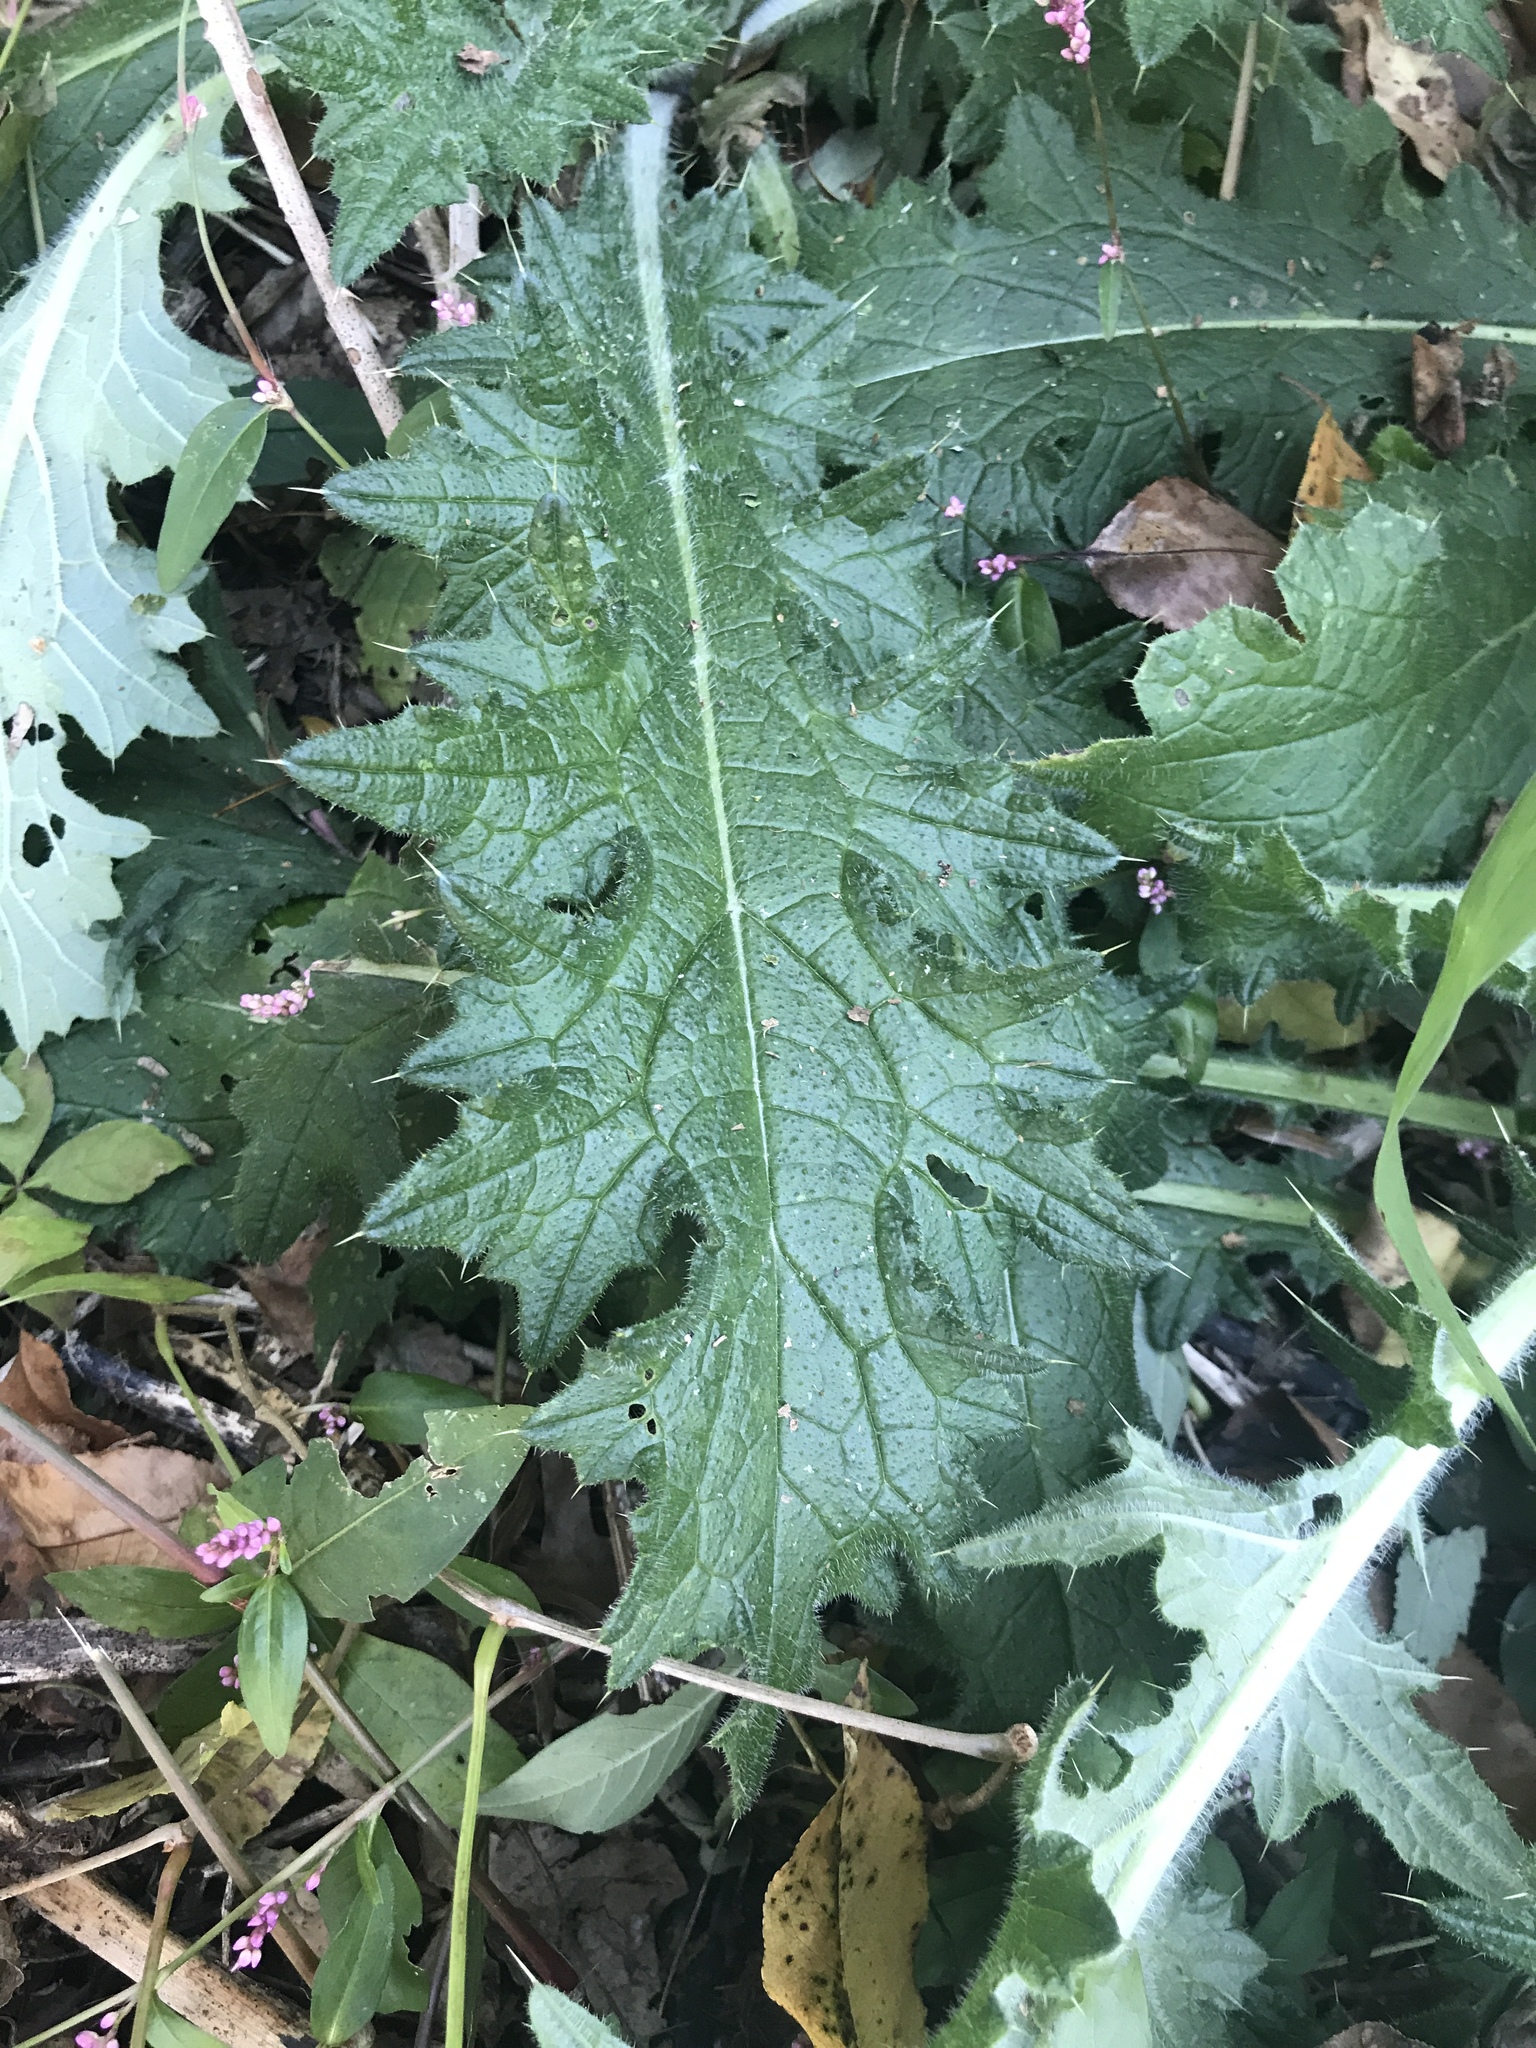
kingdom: Plantae
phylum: Tracheophyta
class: Magnoliopsida
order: Asterales
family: Asteraceae
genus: Cirsium
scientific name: Cirsium vulgare
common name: Bull thistle
